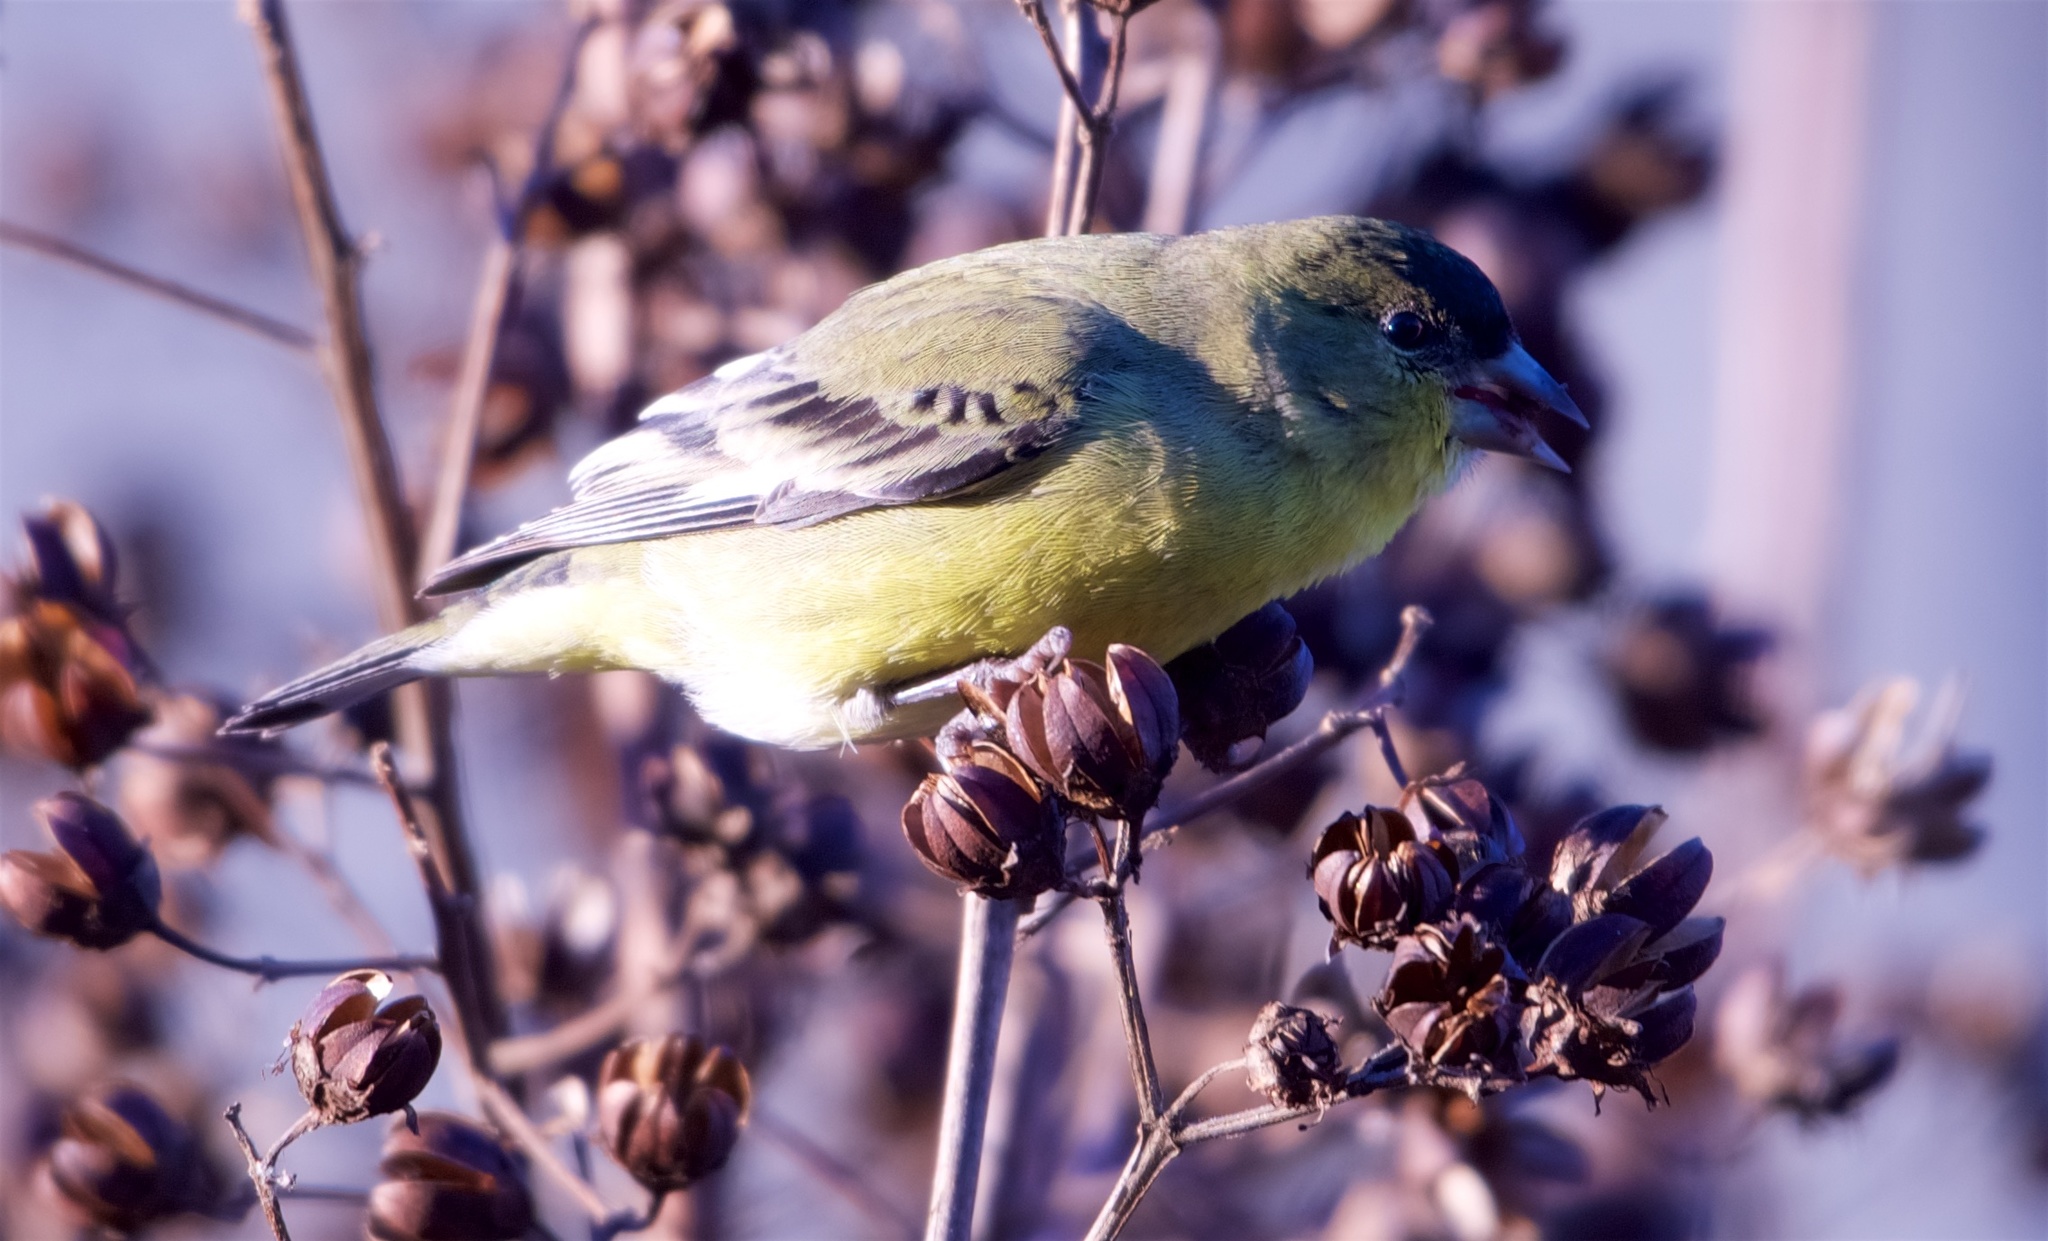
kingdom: Animalia
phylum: Chordata
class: Aves
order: Passeriformes
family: Fringillidae
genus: Spinus
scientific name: Spinus psaltria
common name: Lesser goldfinch
